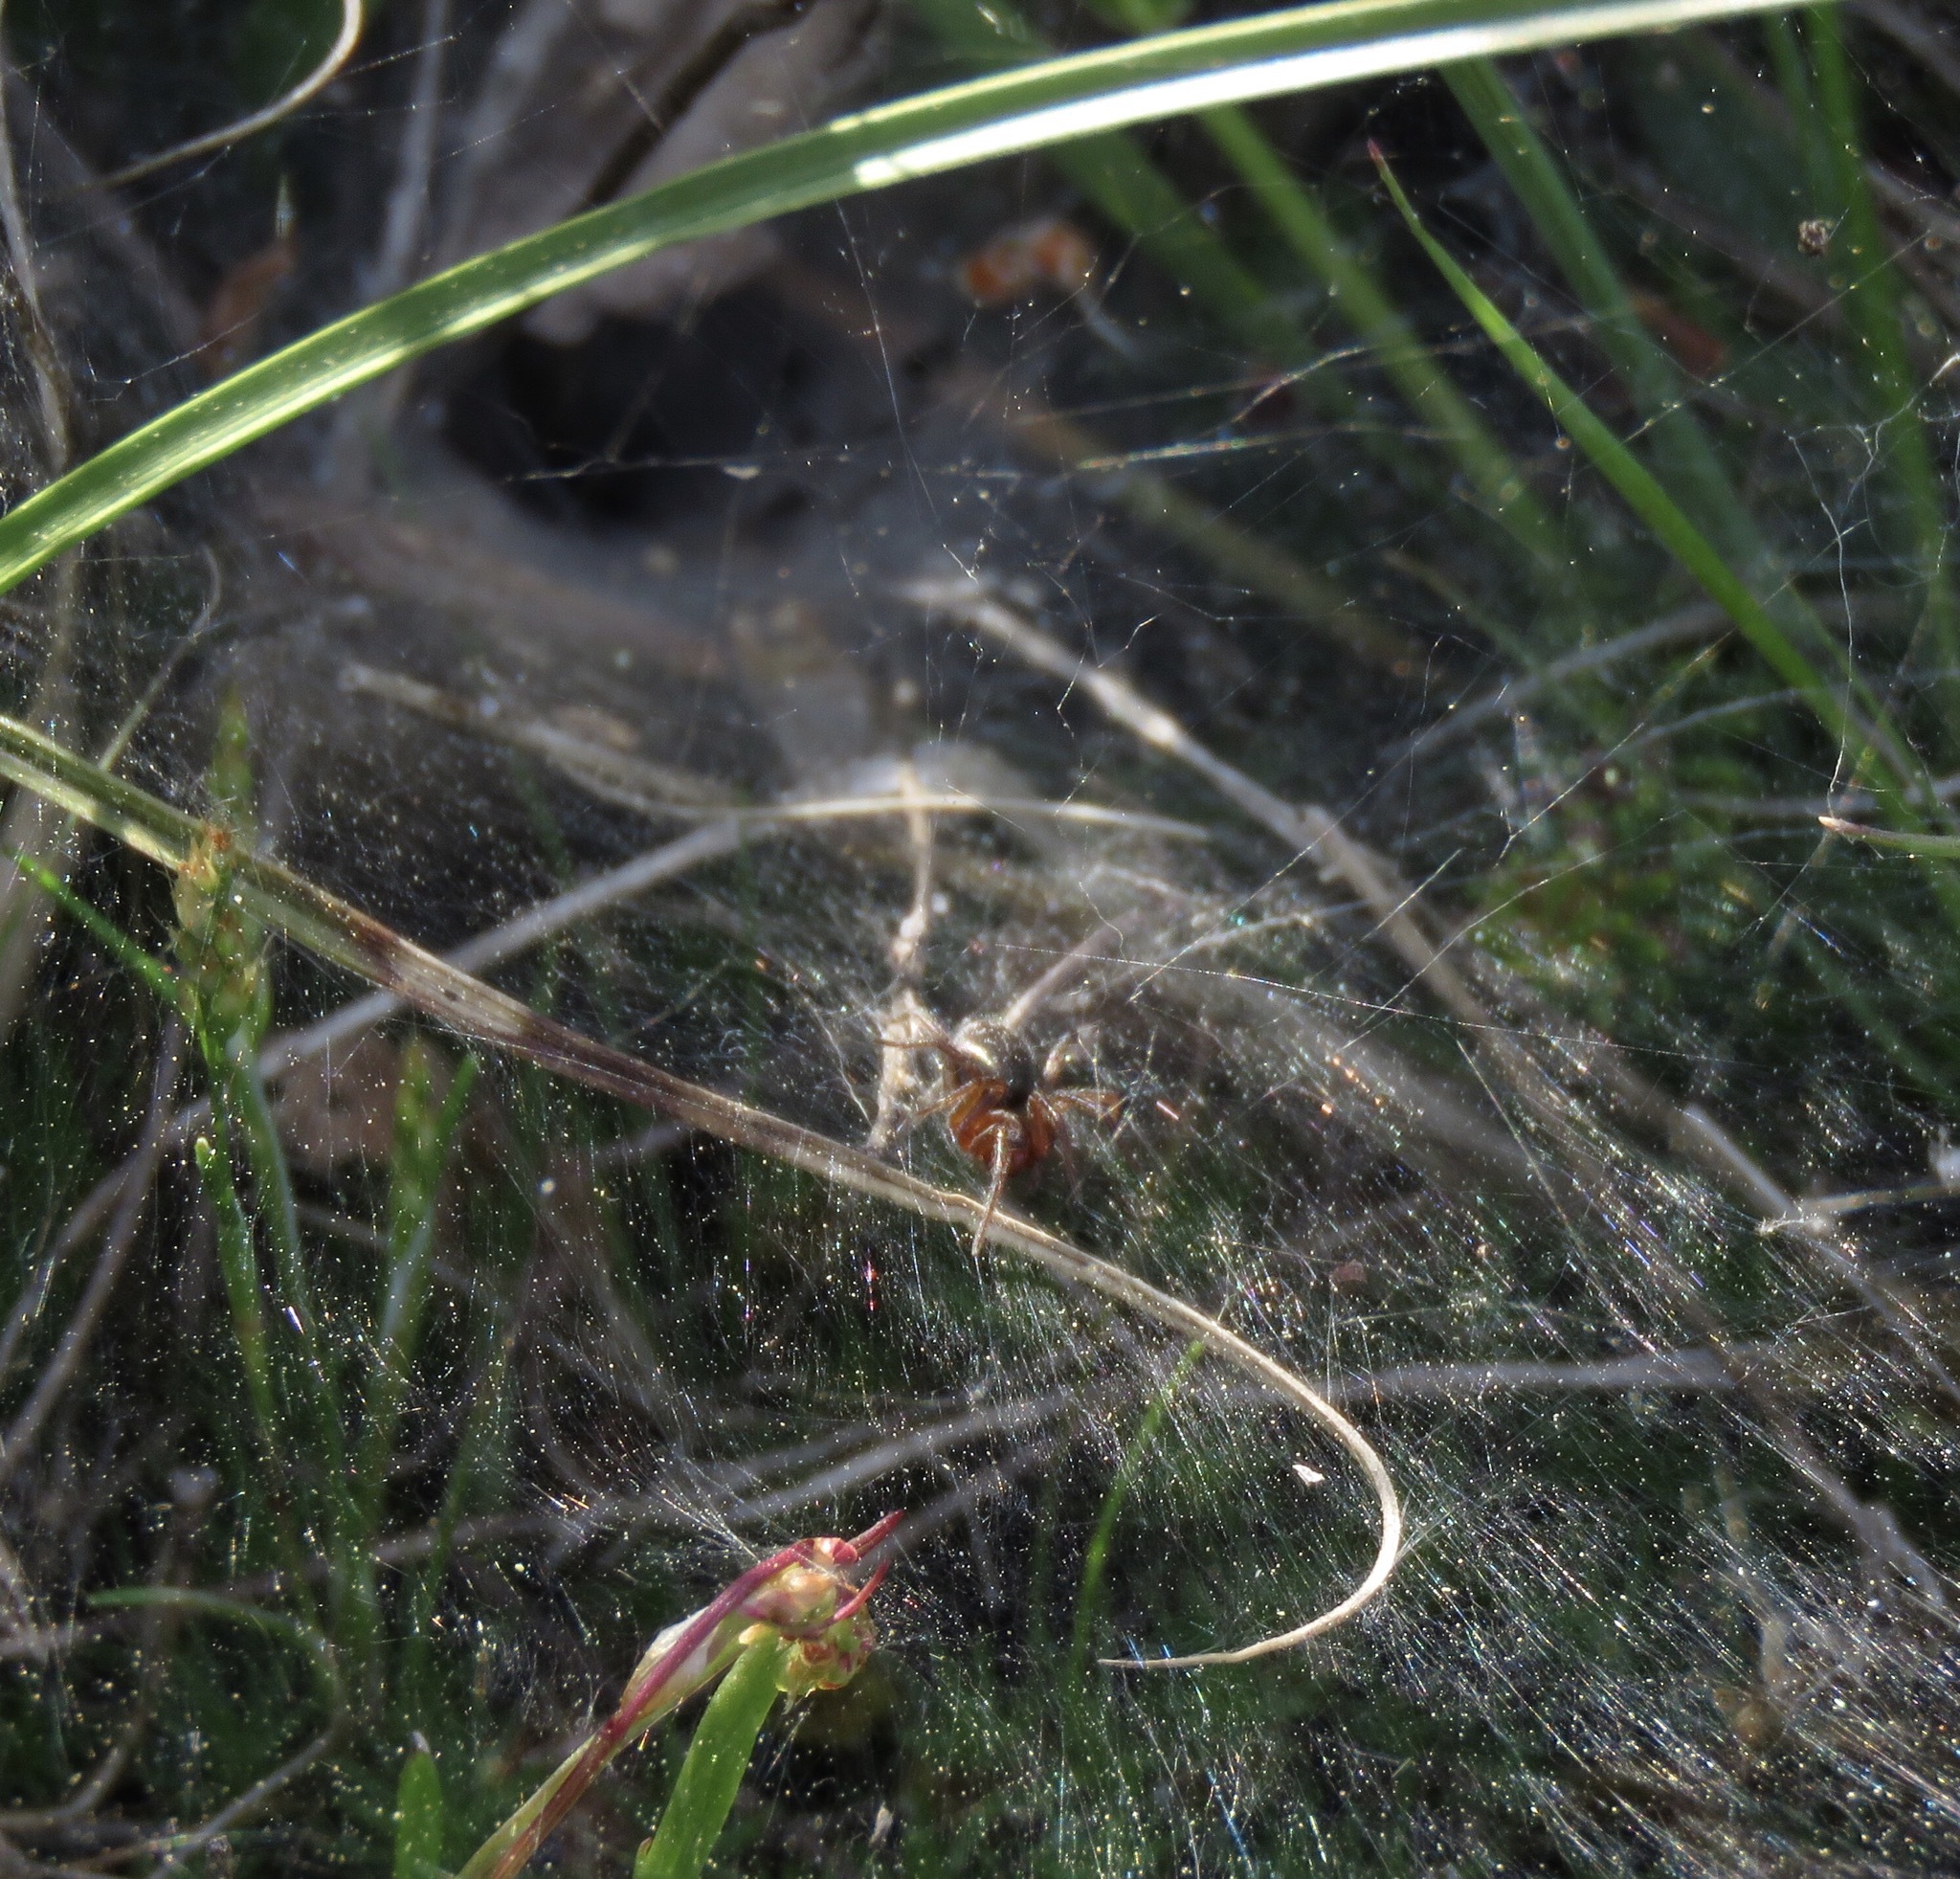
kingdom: Animalia
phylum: Arthropoda
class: Arachnida
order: Araneae
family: Agelenidae
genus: Agelena
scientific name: Agelena labyrinthica
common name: Labyrinth spider
